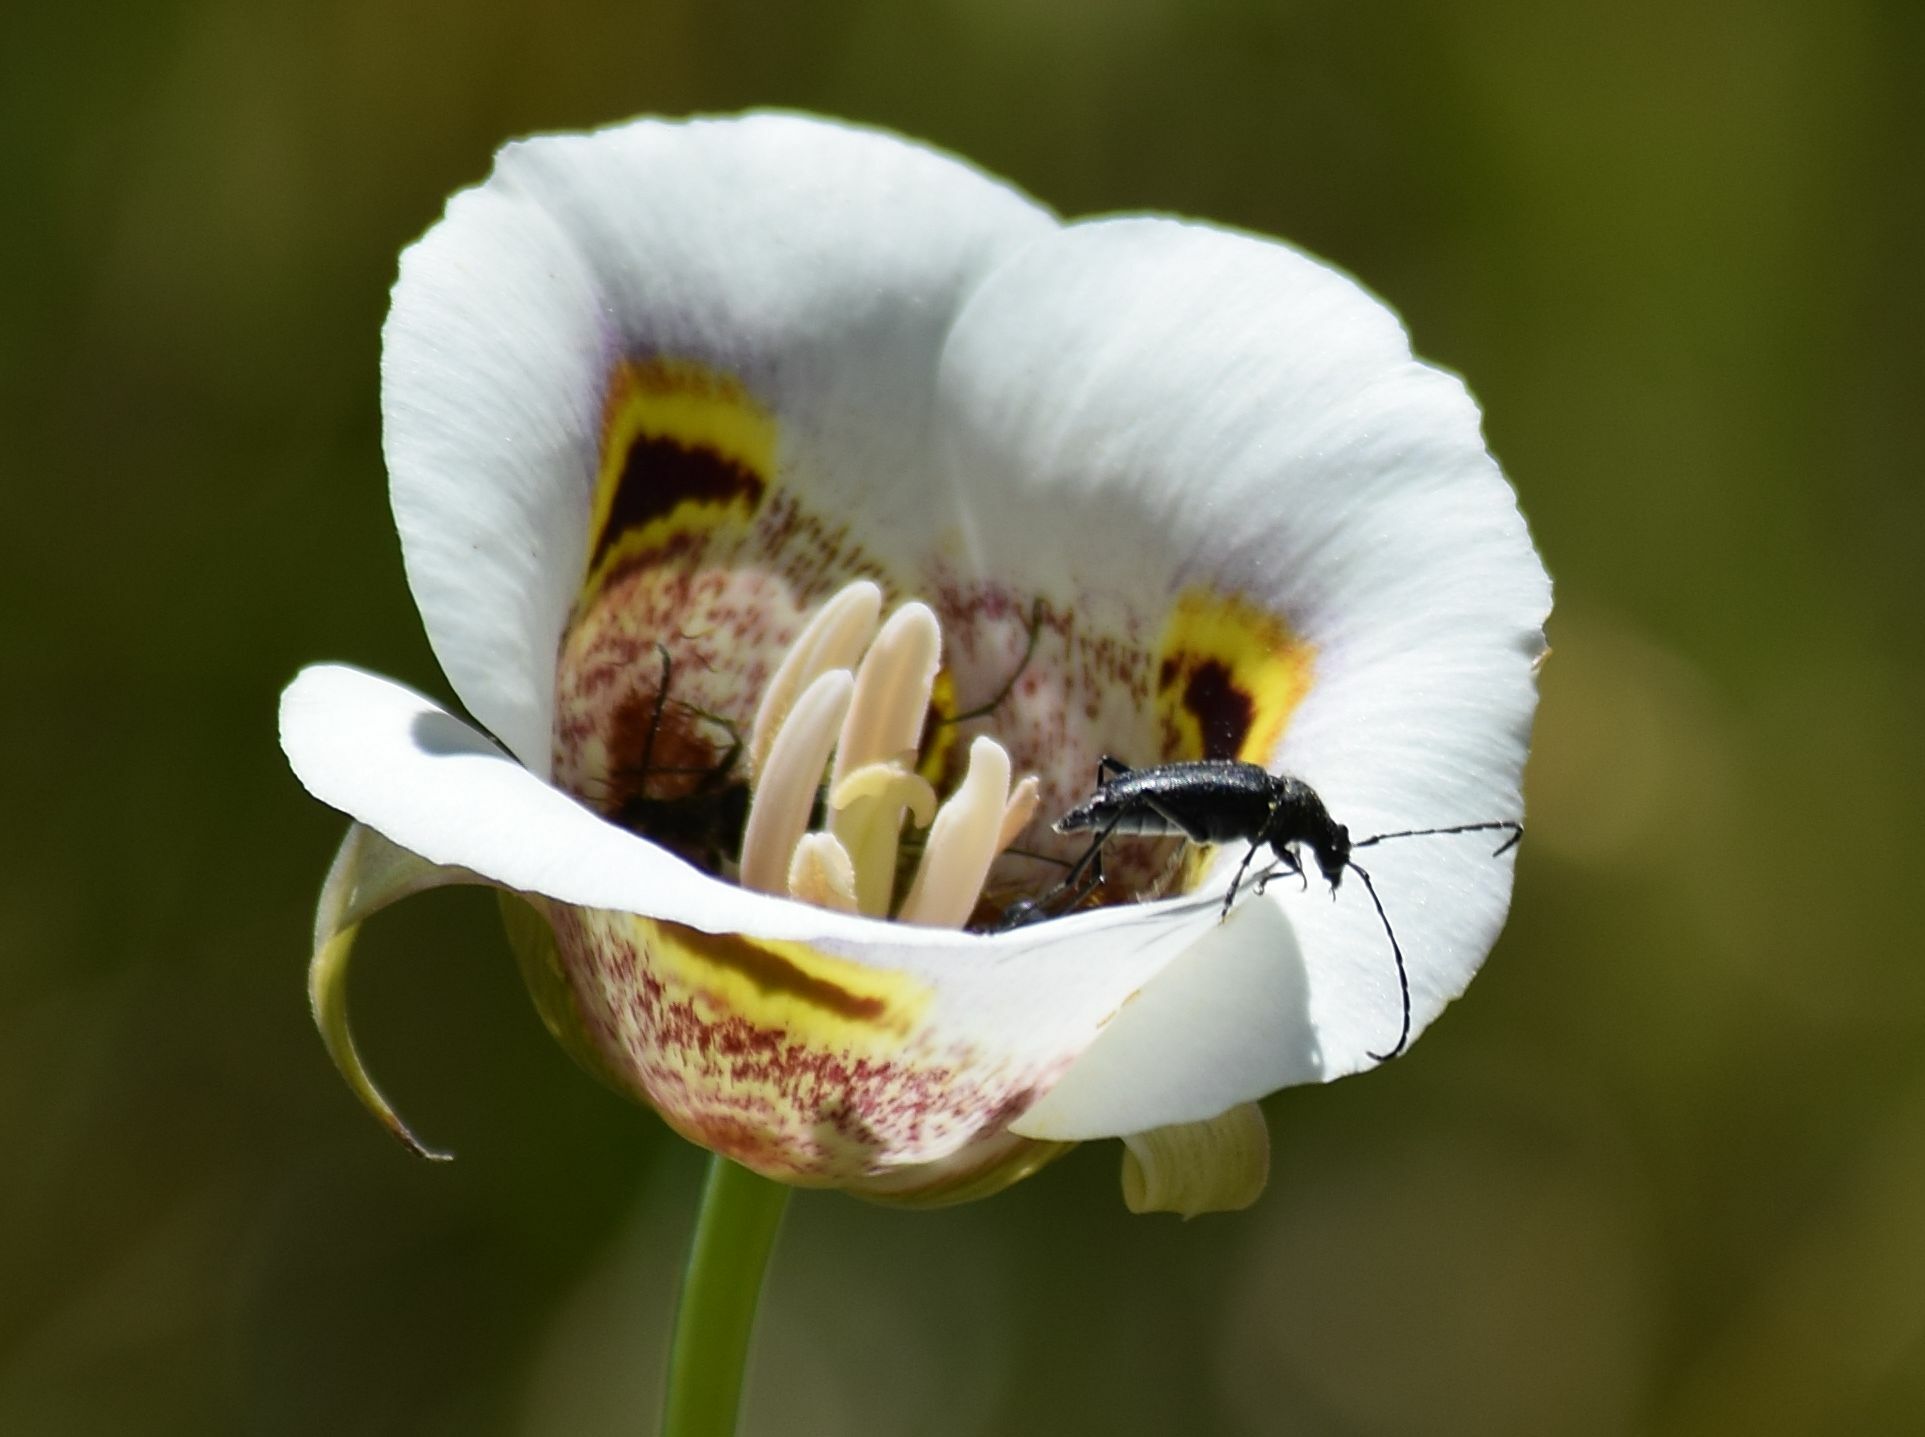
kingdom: Animalia
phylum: Arthropoda
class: Insecta
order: Coleoptera
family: Cerambycidae
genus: Anastrangalia
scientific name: Anastrangalia laetifica
